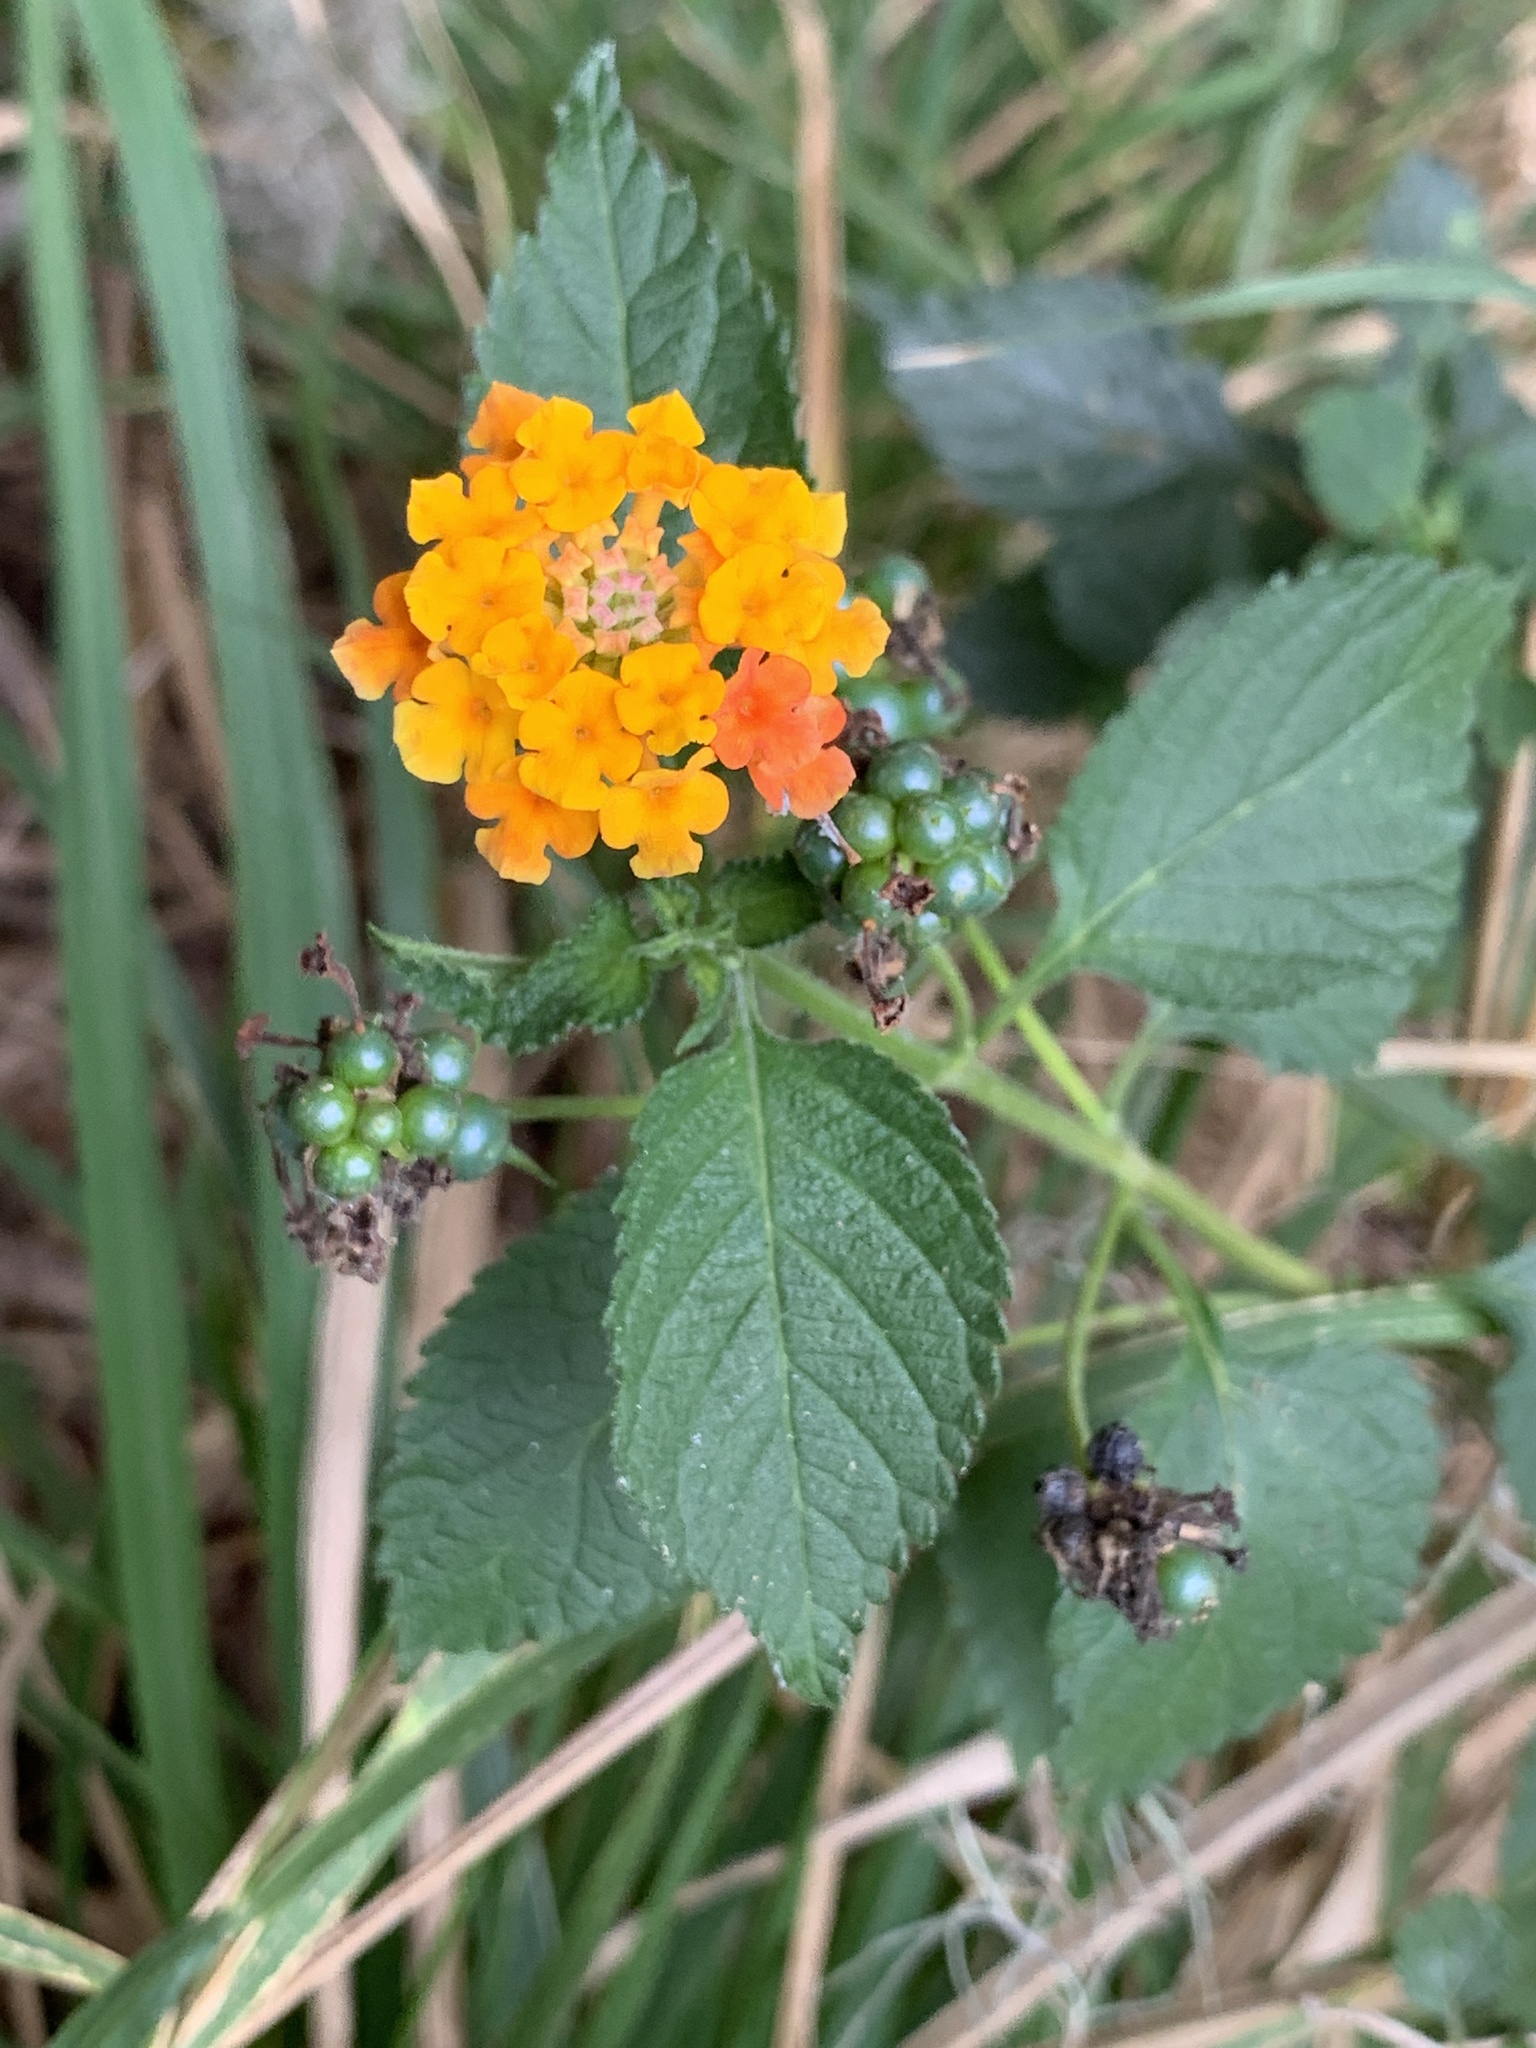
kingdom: Plantae
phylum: Tracheophyta
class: Magnoliopsida
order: Lamiales
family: Verbenaceae
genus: Lantana
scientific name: Lantana camara
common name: Lantana
